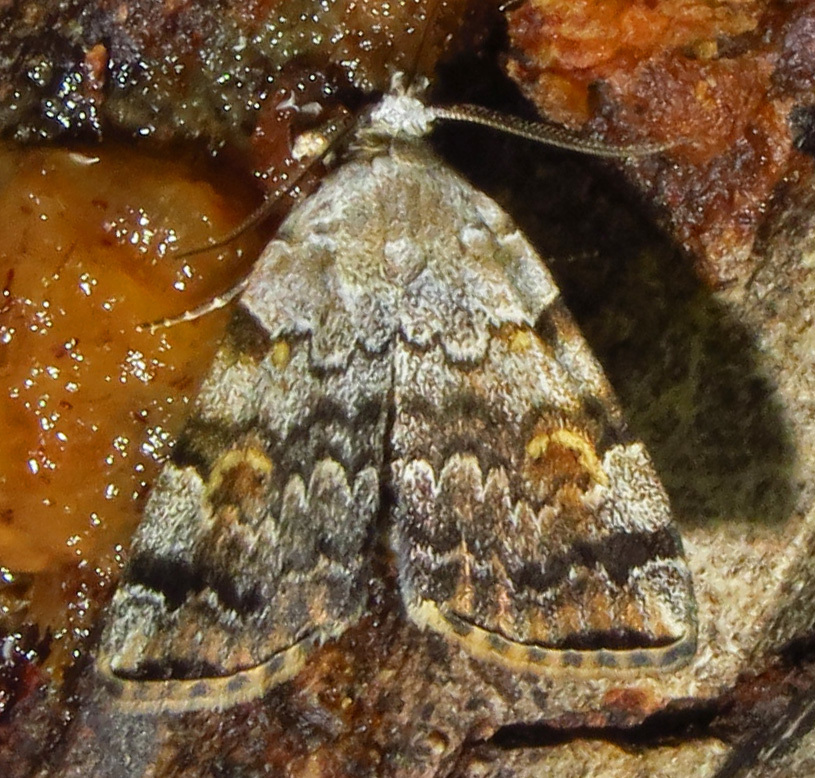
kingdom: Animalia
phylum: Arthropoda
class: Insecta
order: Lepidoptera
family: Erebidae
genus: Idia
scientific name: Idia americalis
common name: American idia moth
